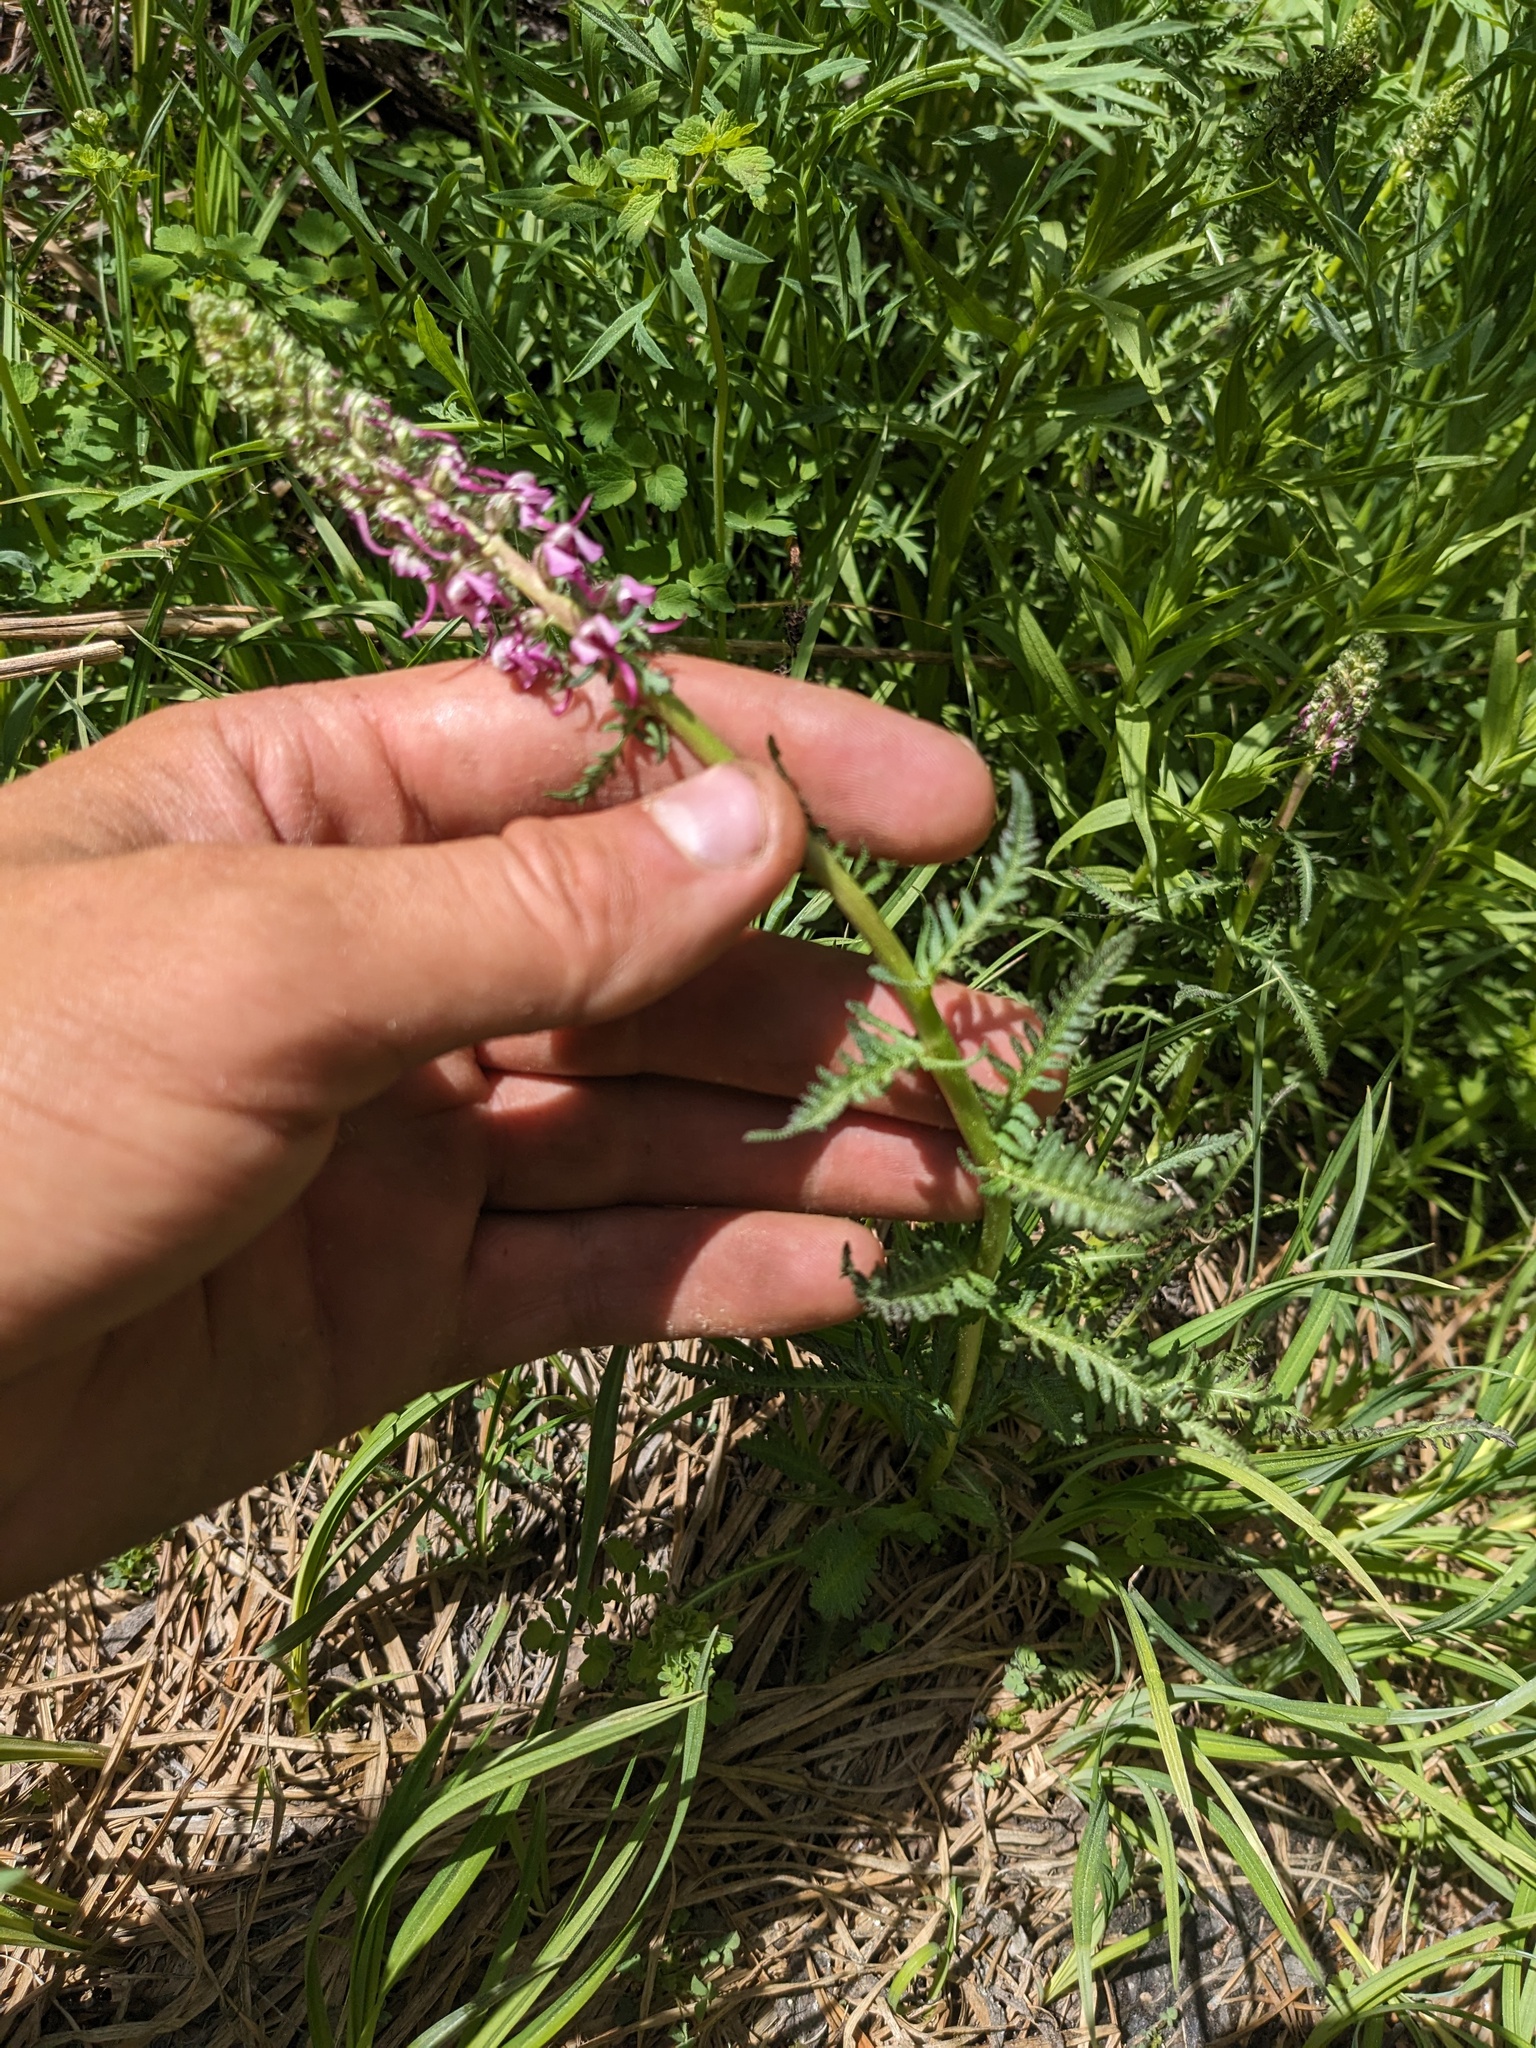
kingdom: Plantae
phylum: Tracheophyta
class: Magnoliopsida
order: Lamiales
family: Orobanchaceae
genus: Pedicularis
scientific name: Pedicularis groenlandica
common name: Elephant's-head
